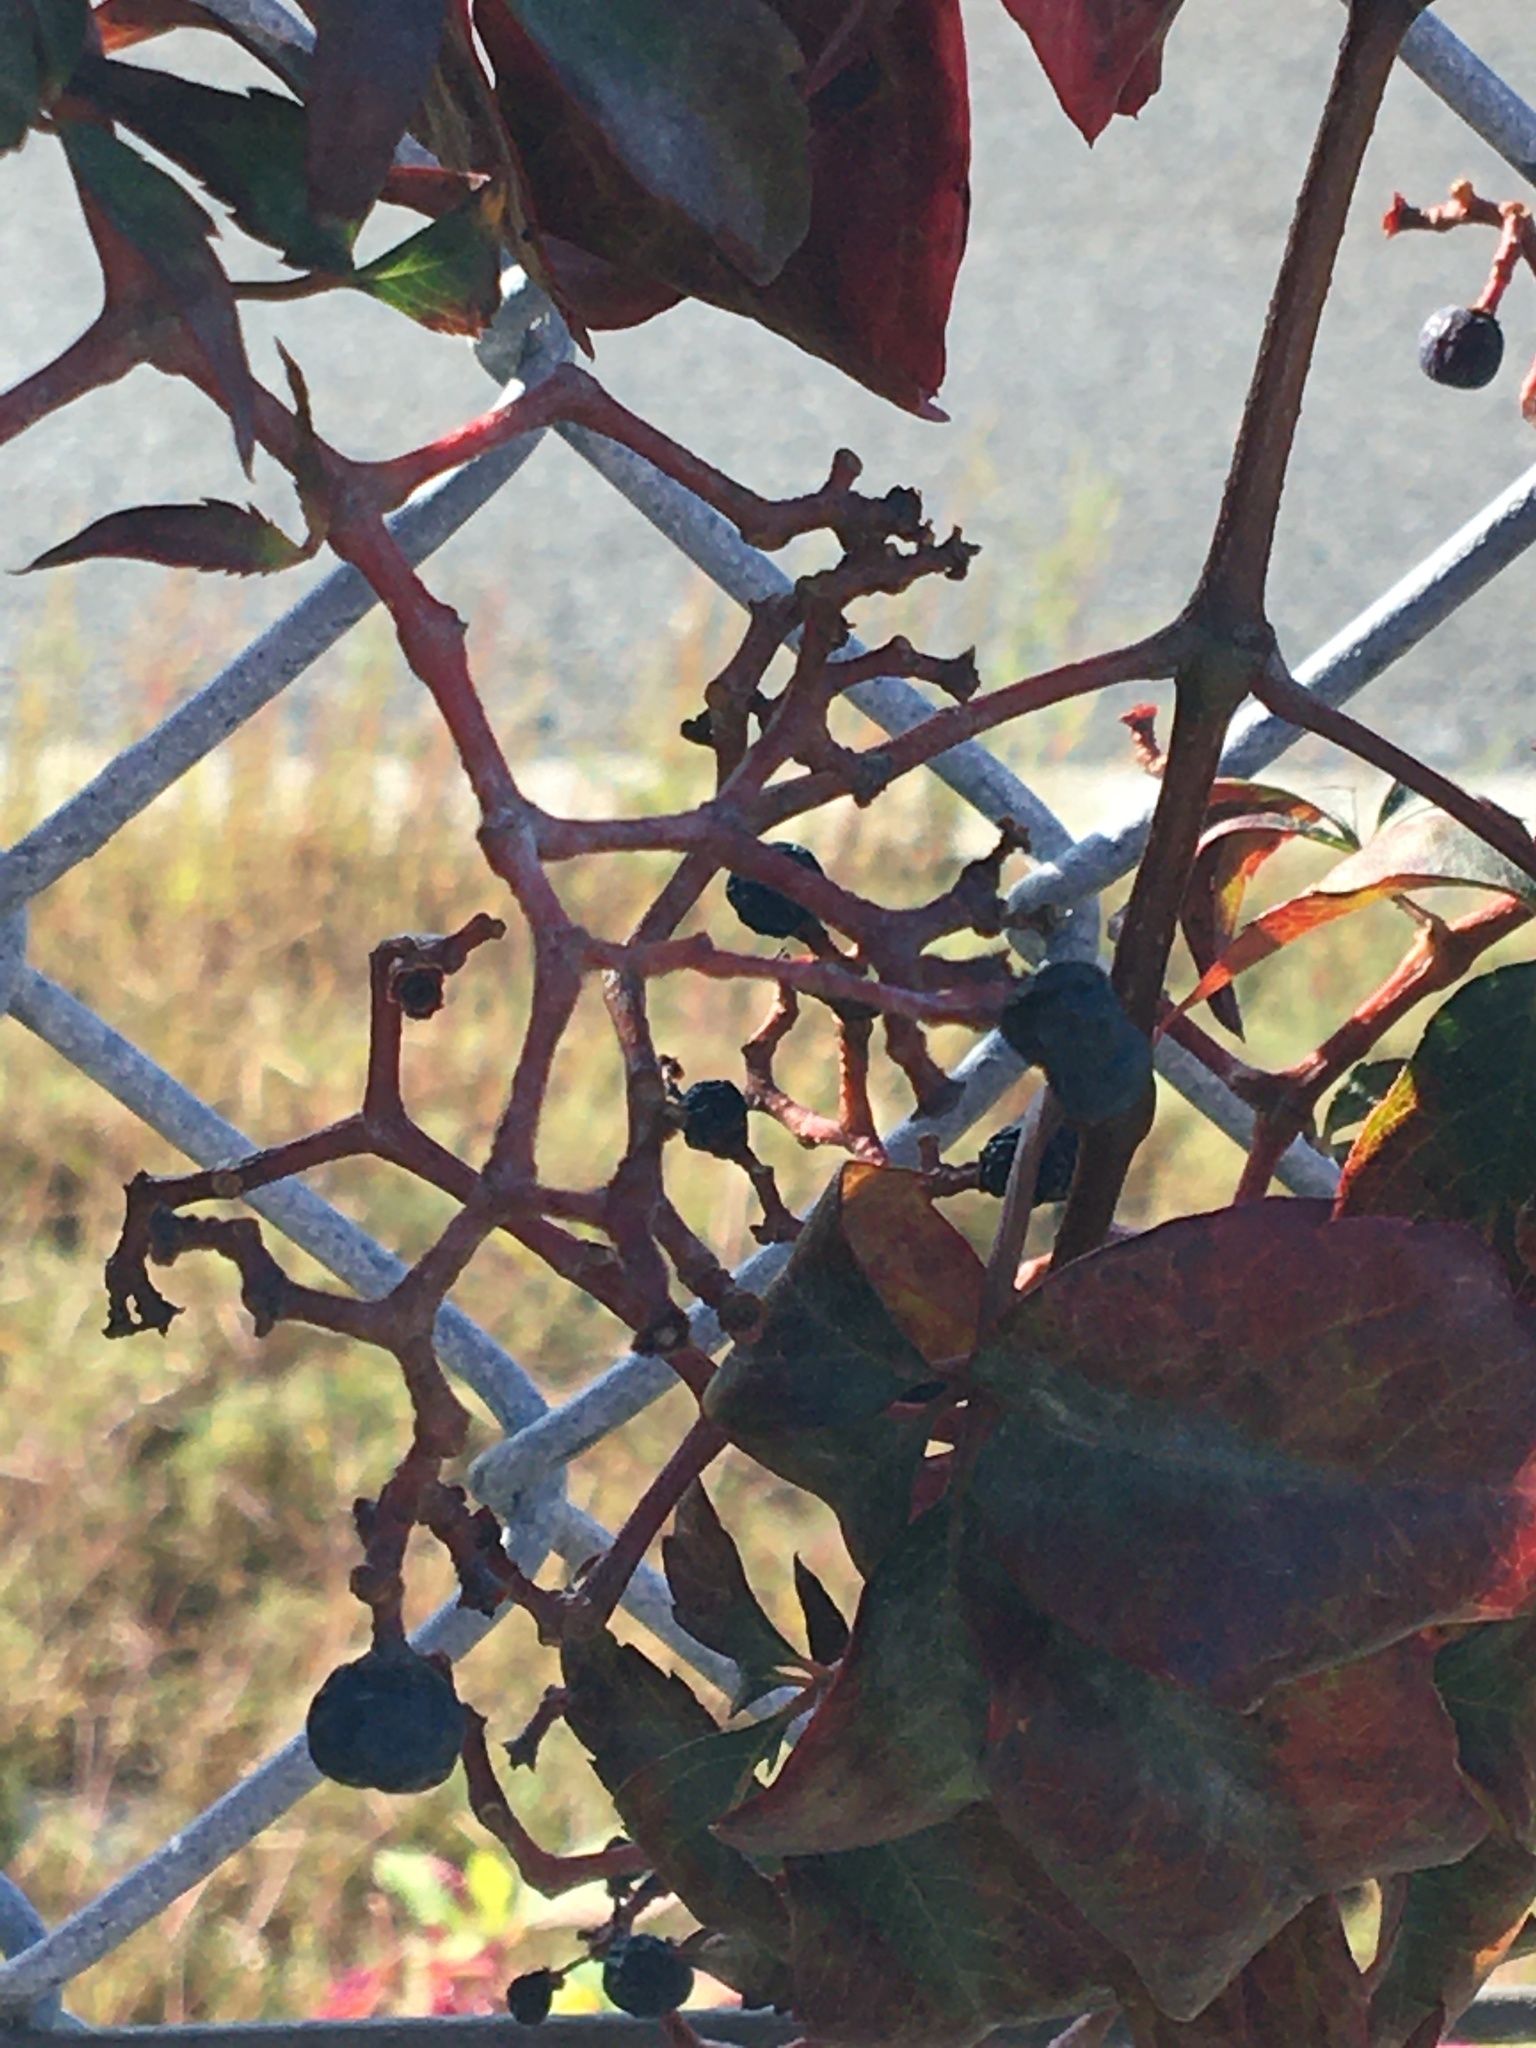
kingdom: Plantae
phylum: Tracheophyta
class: Magnoliopsida
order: Vitales
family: Vitaceae
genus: Parthenocissus
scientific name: Parthenocissus quinquefolia
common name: Virginia-creeper
